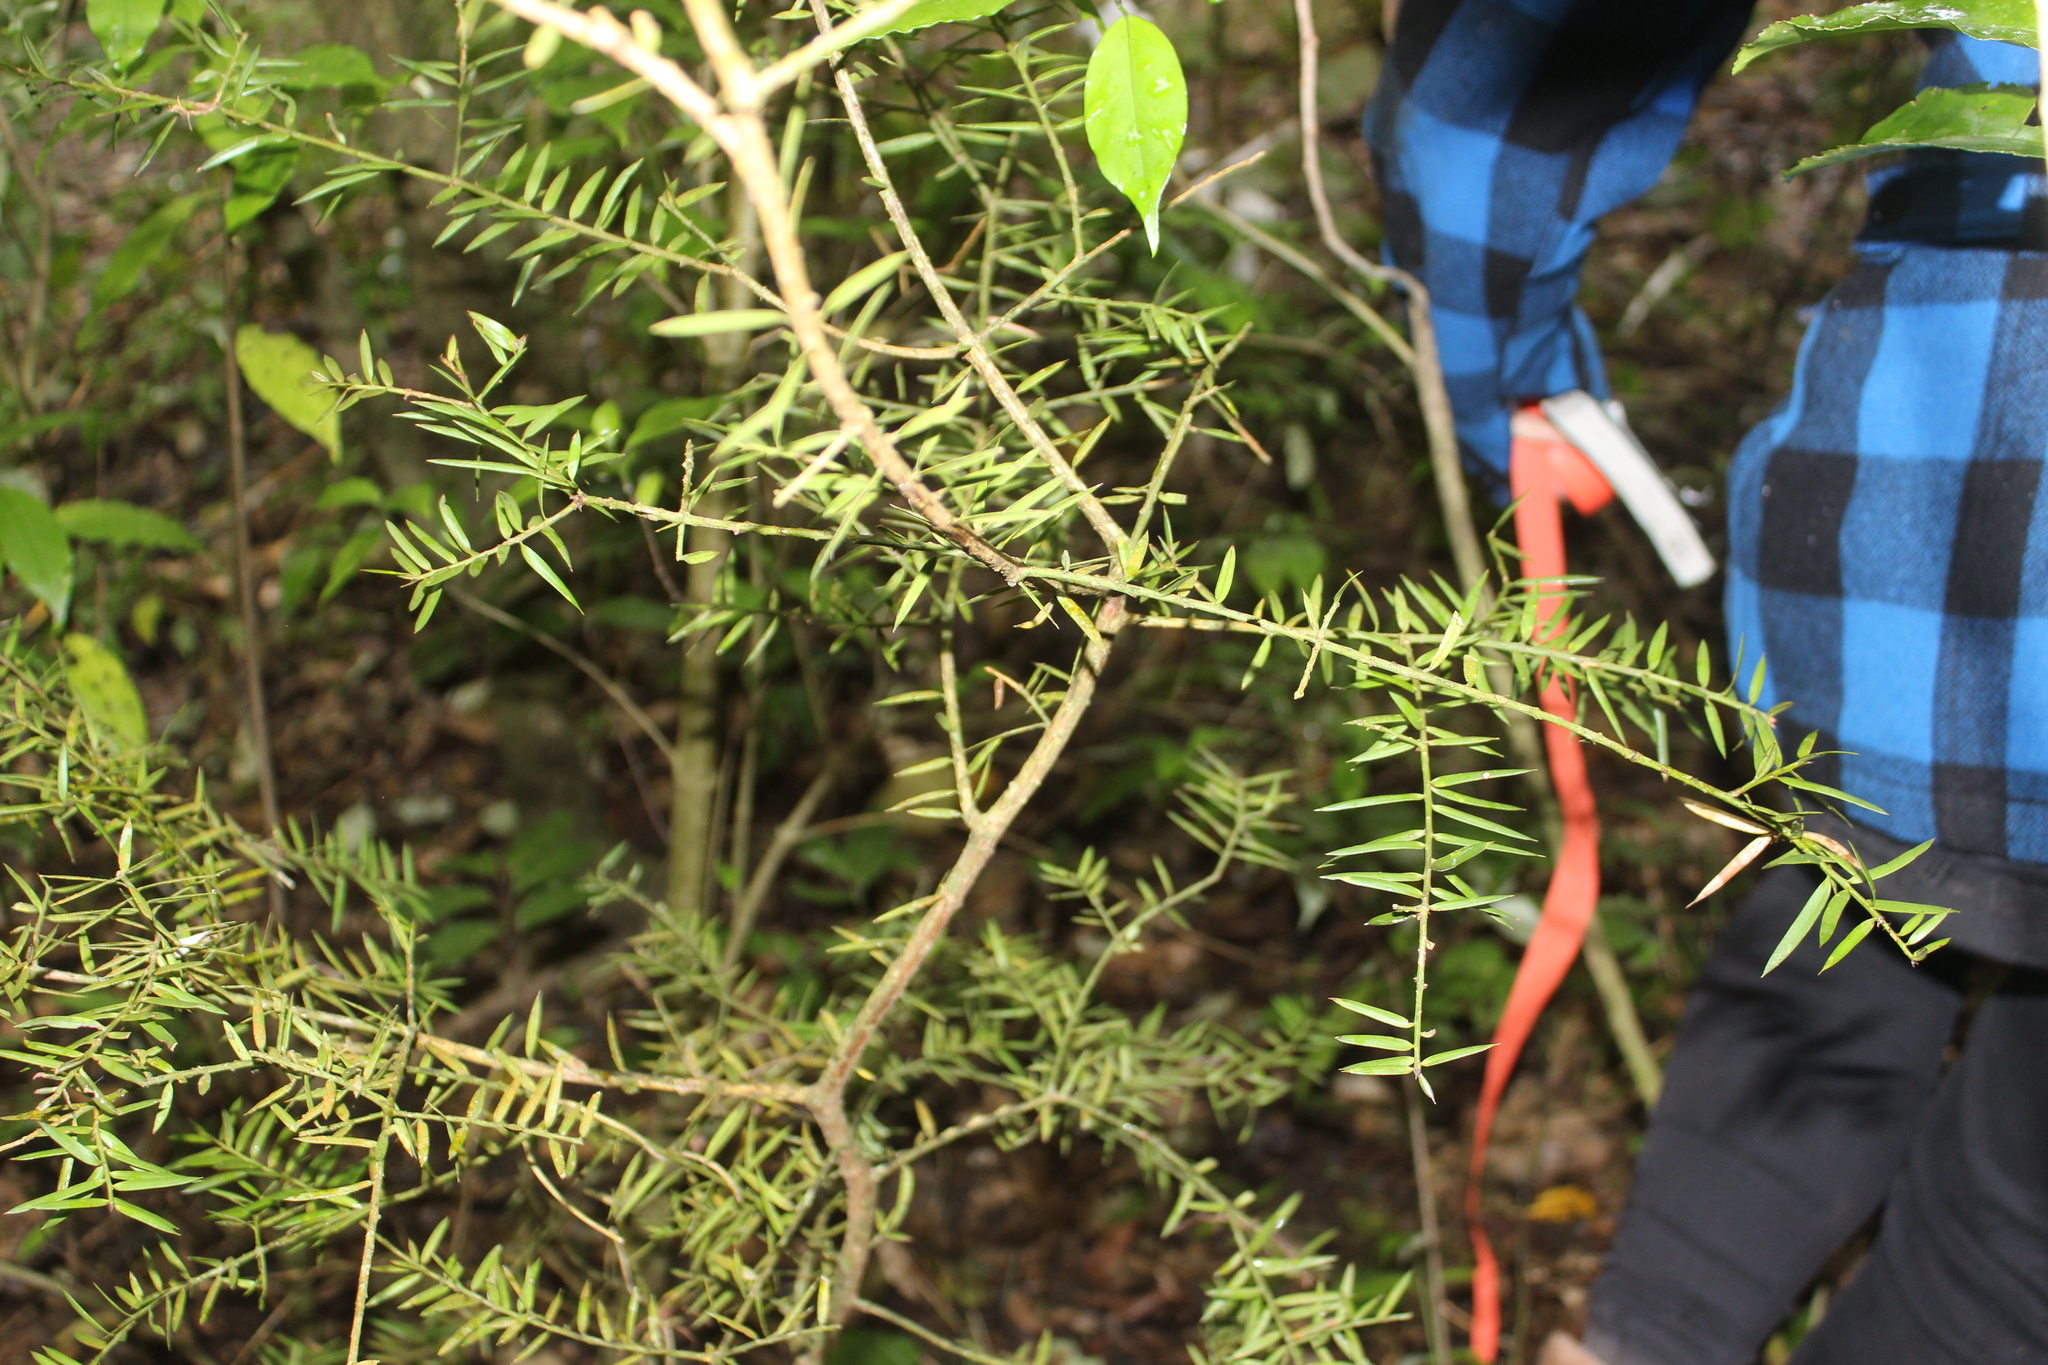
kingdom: Plantae
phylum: Tracheophyta
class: Pinopsida
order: Pinales
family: Podocarpaceae
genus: Podocarpus
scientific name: Podocarpus totara
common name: Totara
